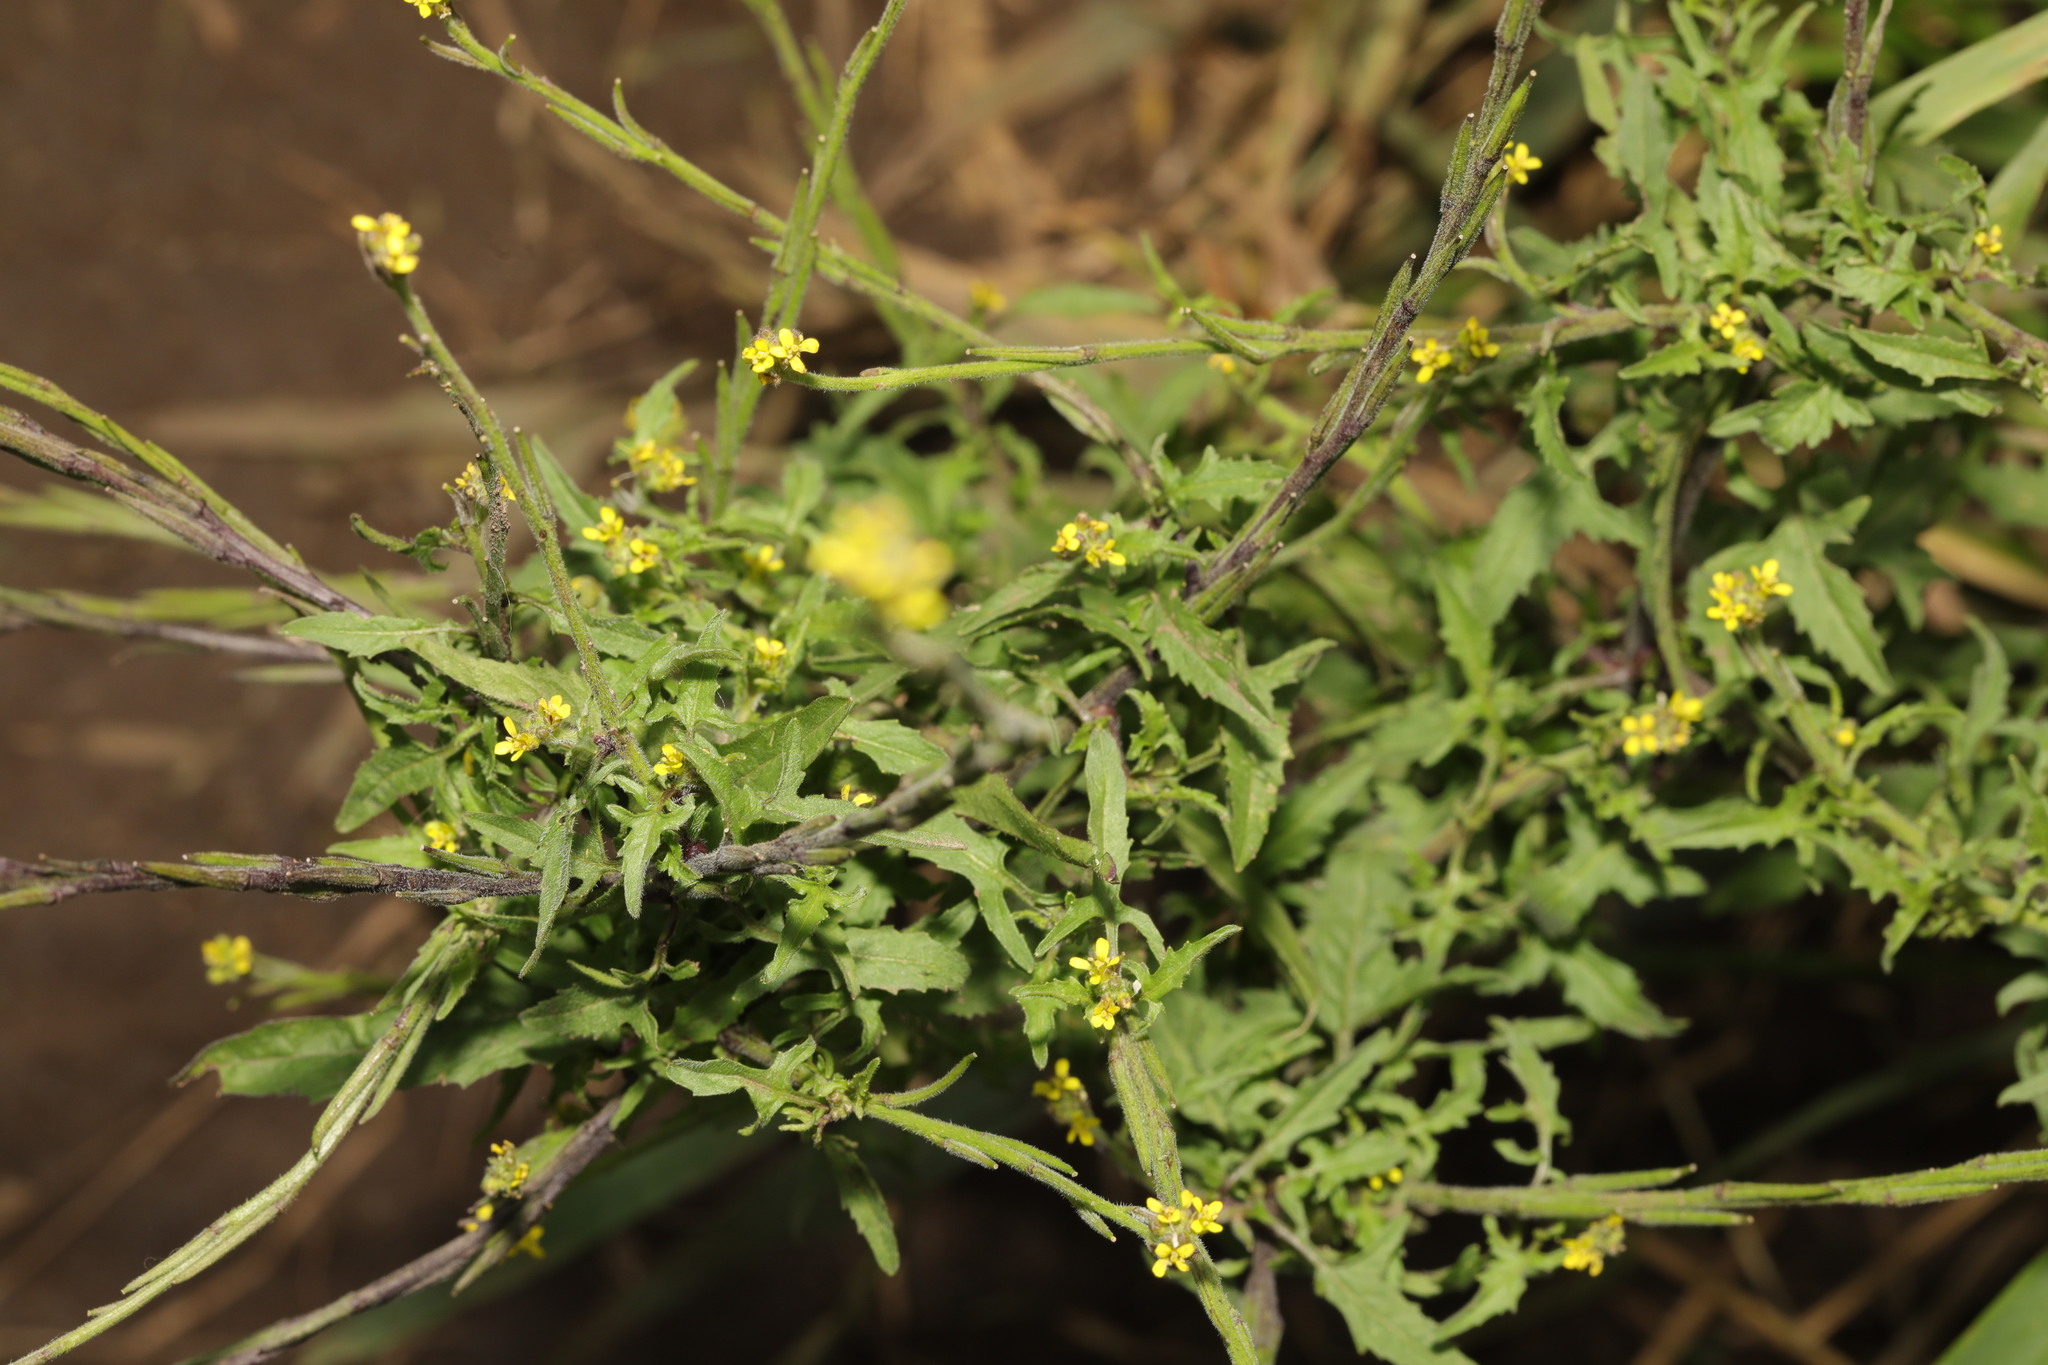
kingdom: Plantae
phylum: Tracheophyta
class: Magnoliopsida
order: Brassicales
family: Brassicaceae
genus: Sisymbrium
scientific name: Sisymbrium officinale
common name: Hedge mustard
